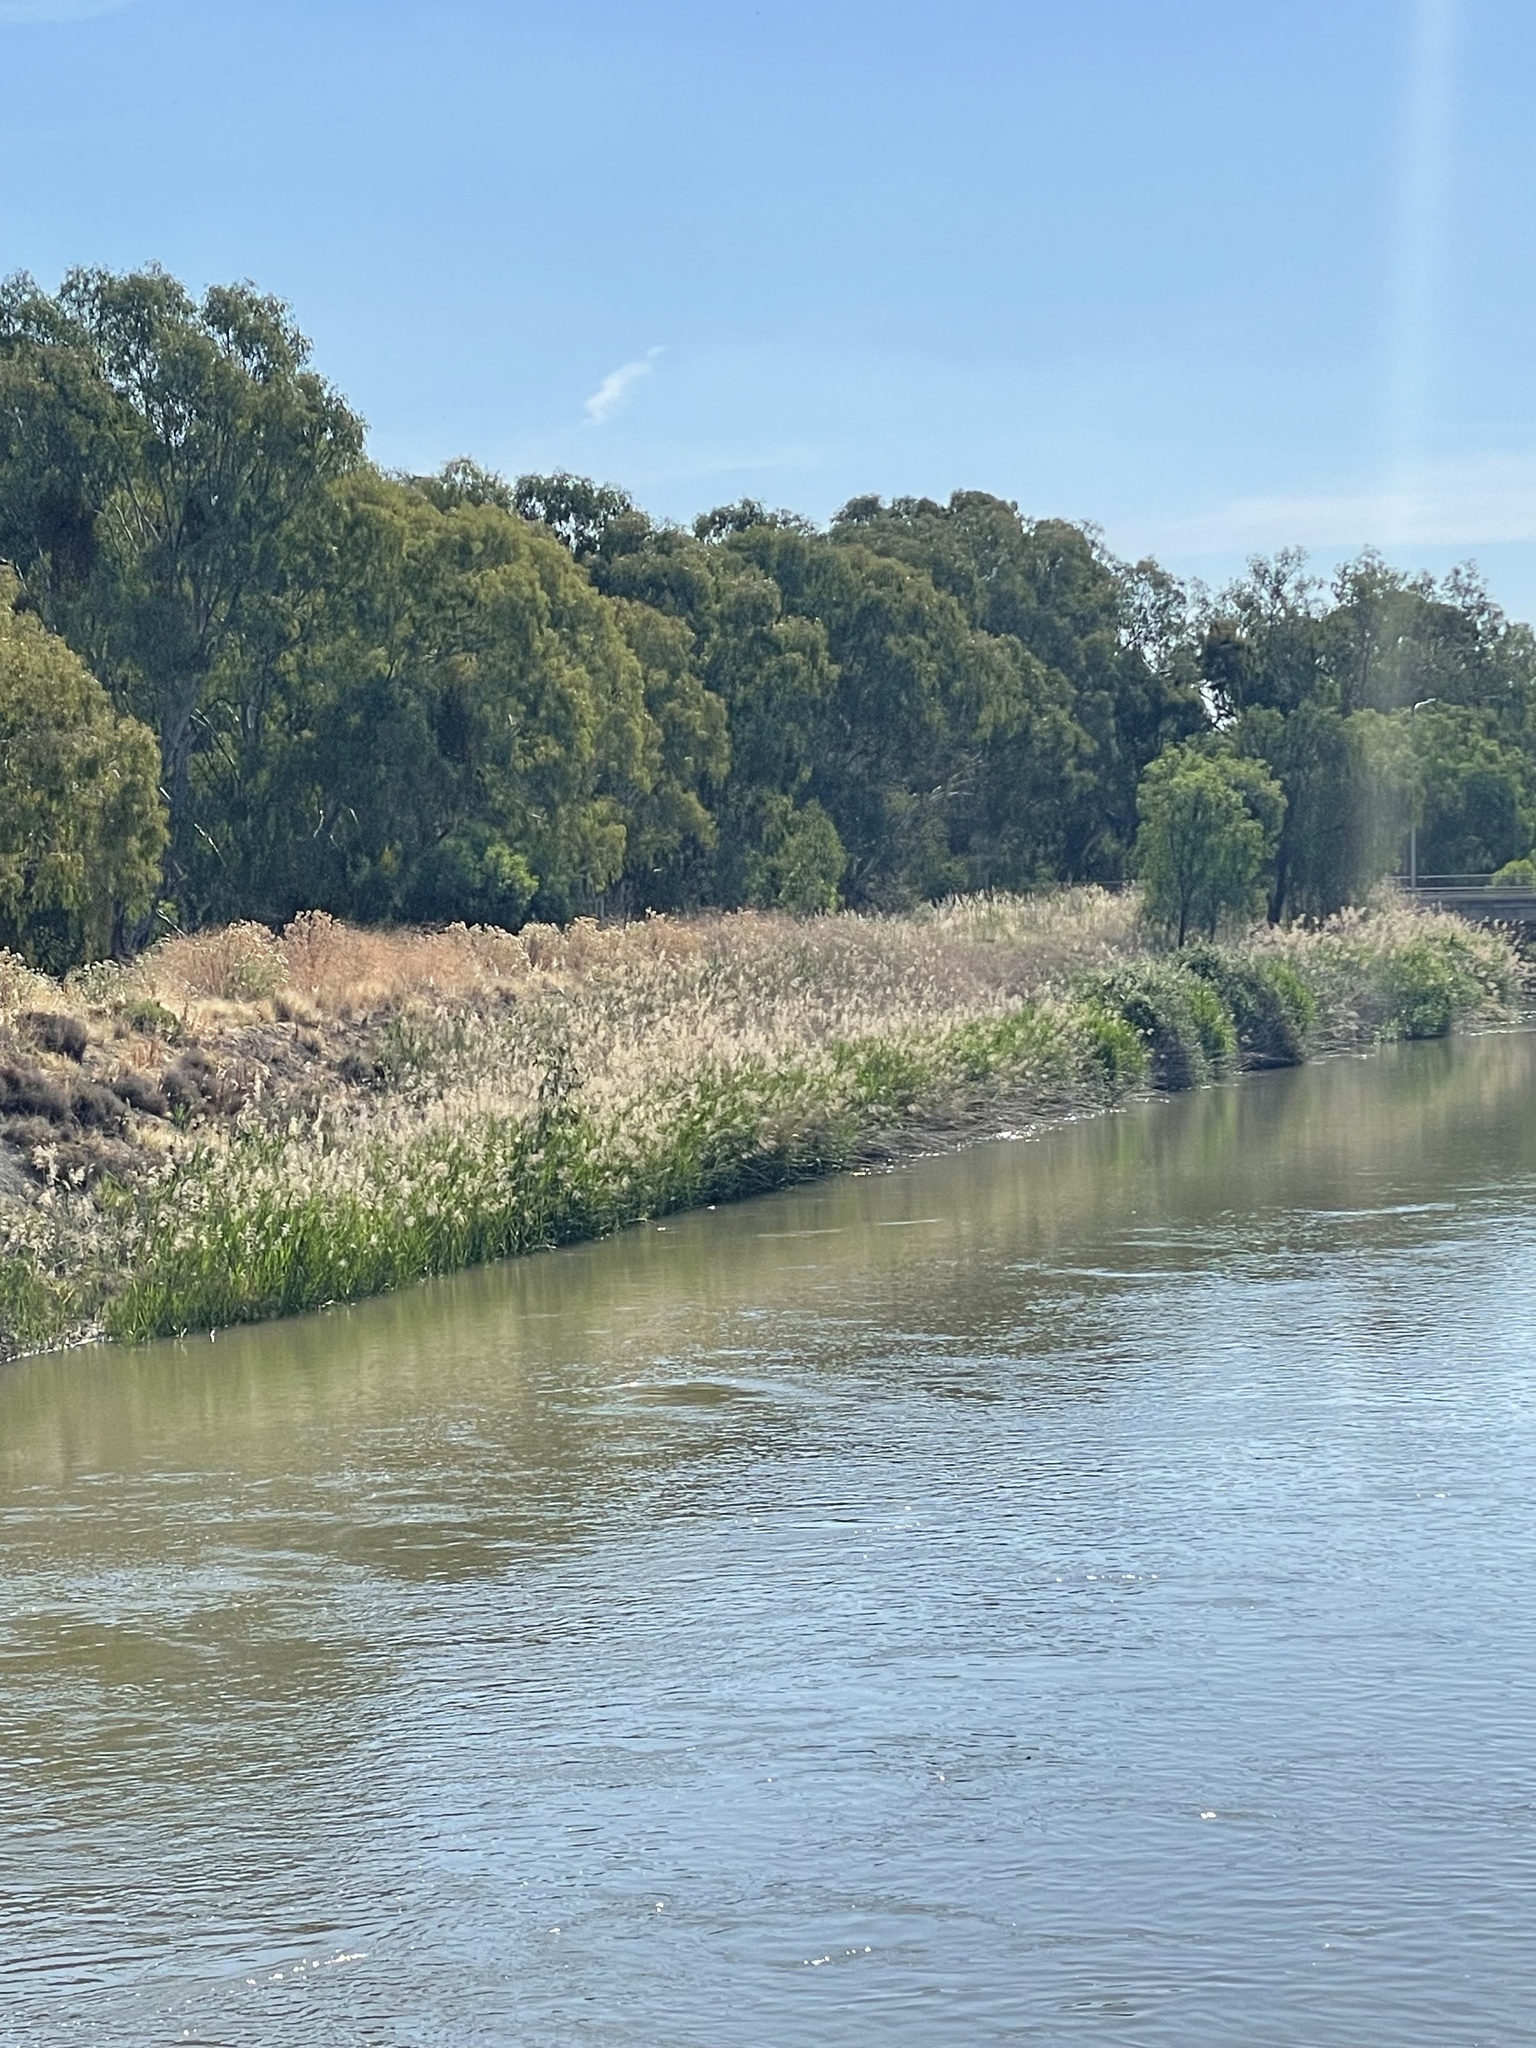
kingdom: Plantae
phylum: Tracheophyta
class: Liliopsida
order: Poales
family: Poaceae
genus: Phragmites
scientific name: Phragmites australis
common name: Common reed
